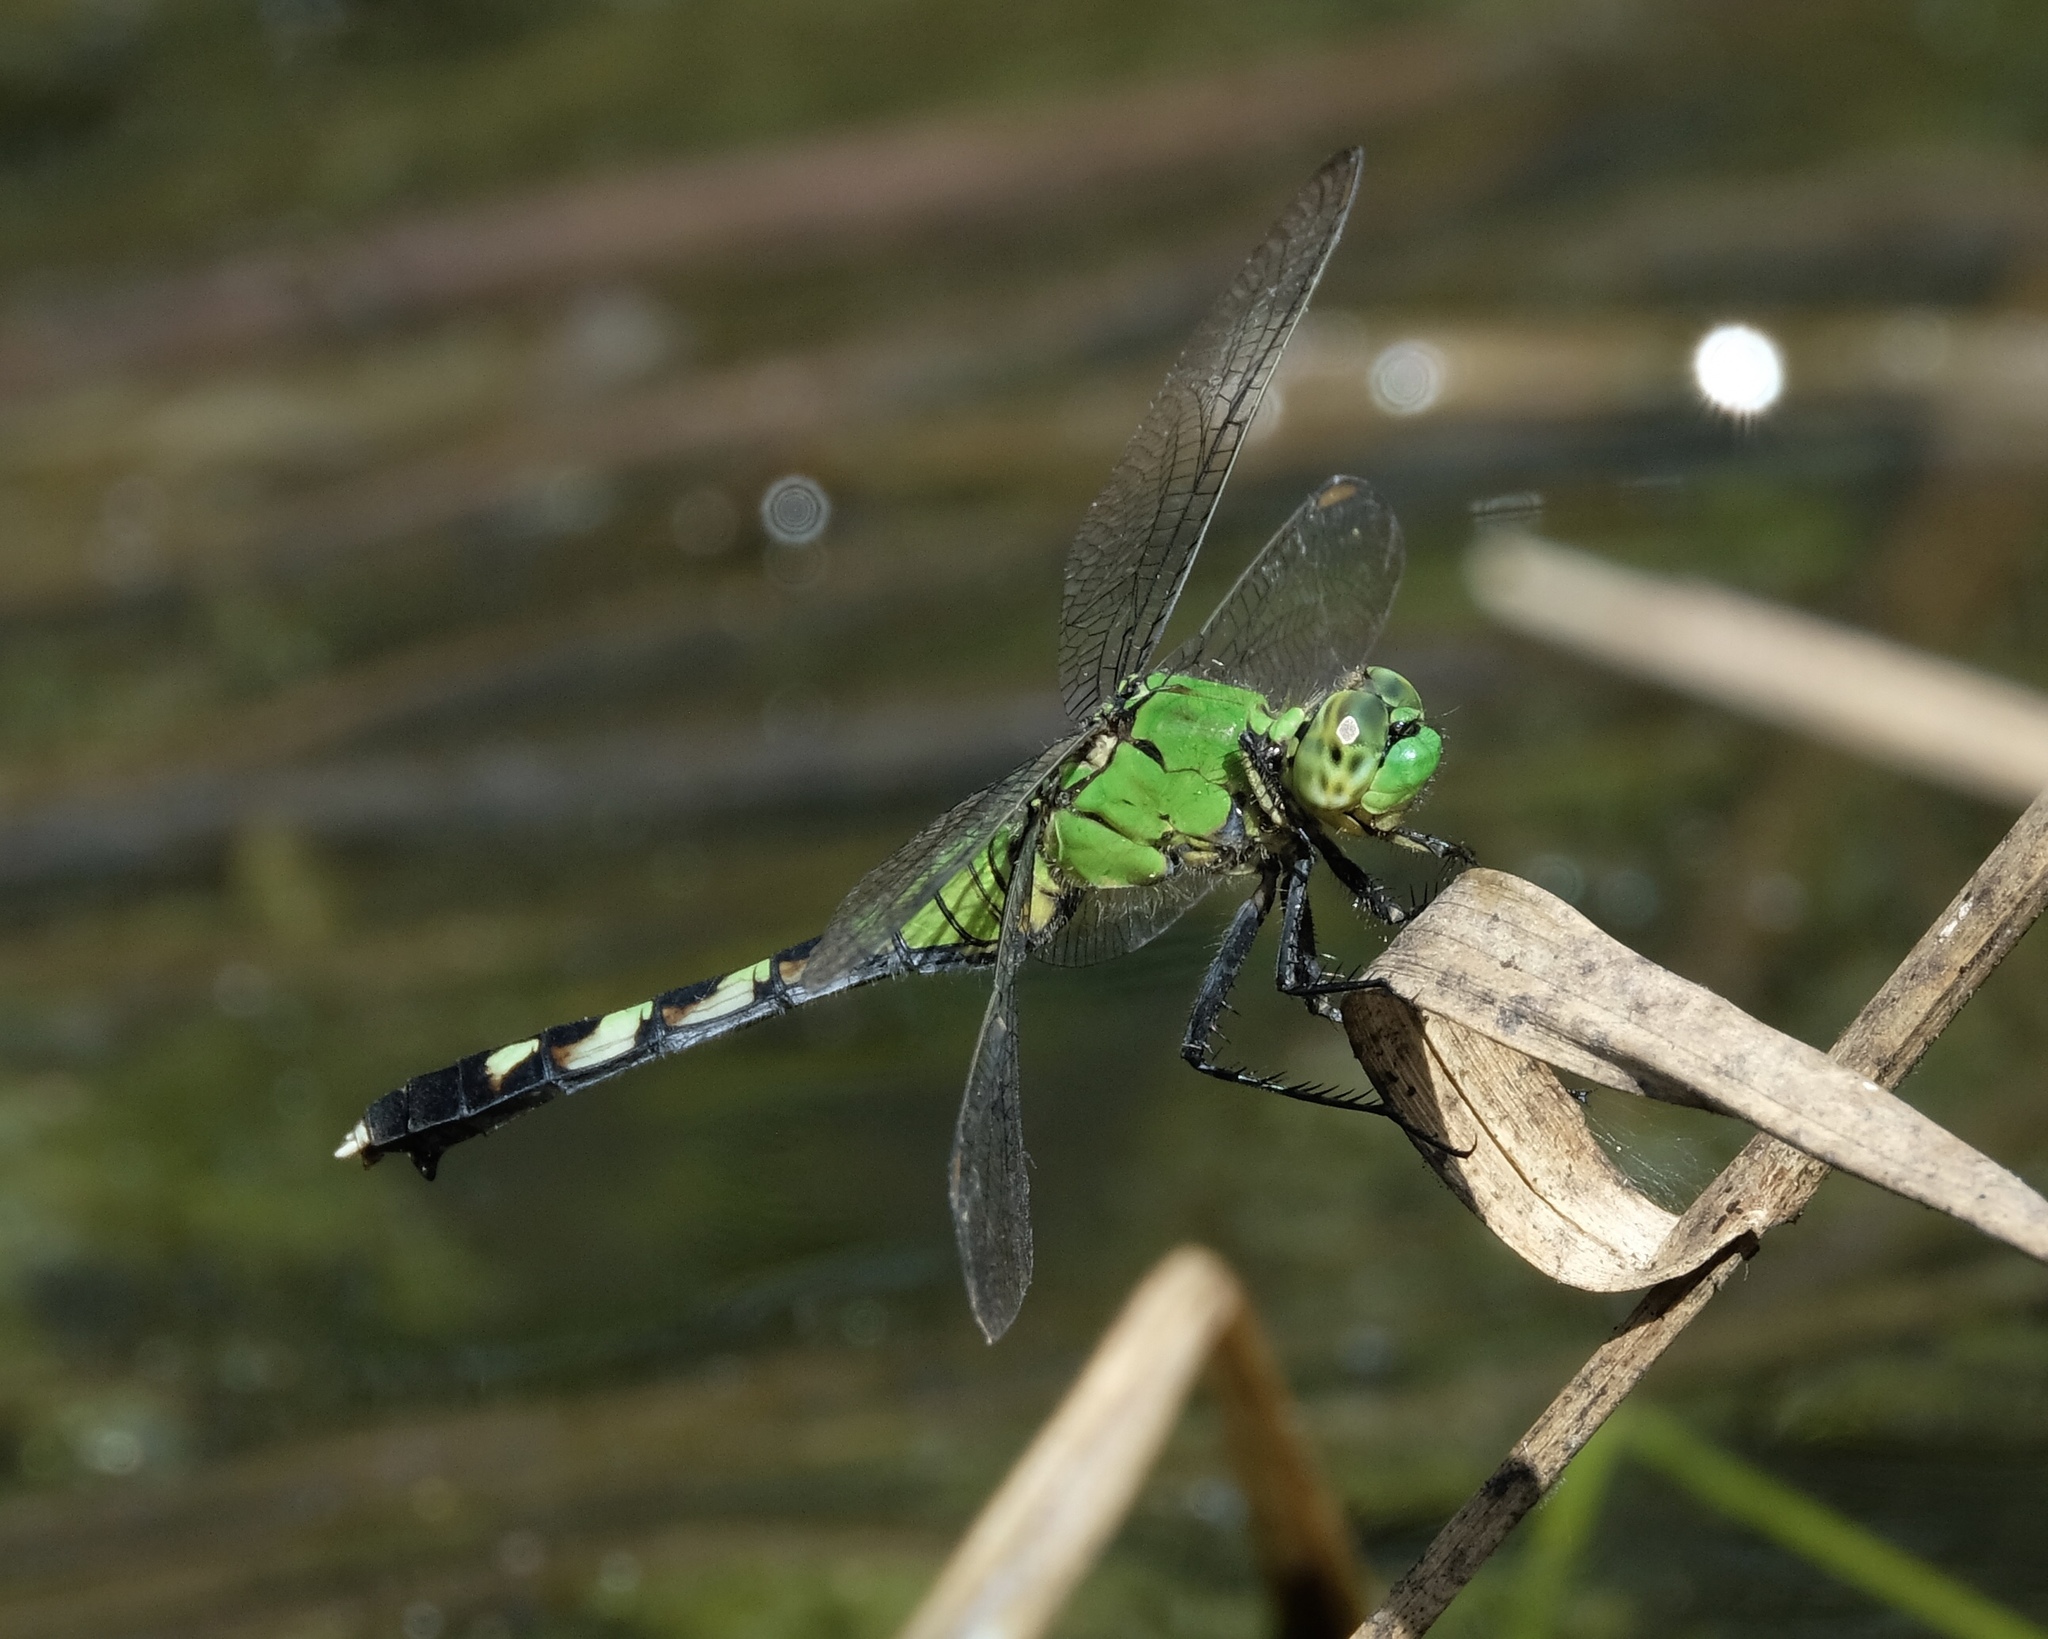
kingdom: Animalia
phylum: Arthropoda
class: Insecta
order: Odonata
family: Libellulidae
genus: Erythemis
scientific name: Erythemis simplicicollis
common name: Eastern pondhawk
